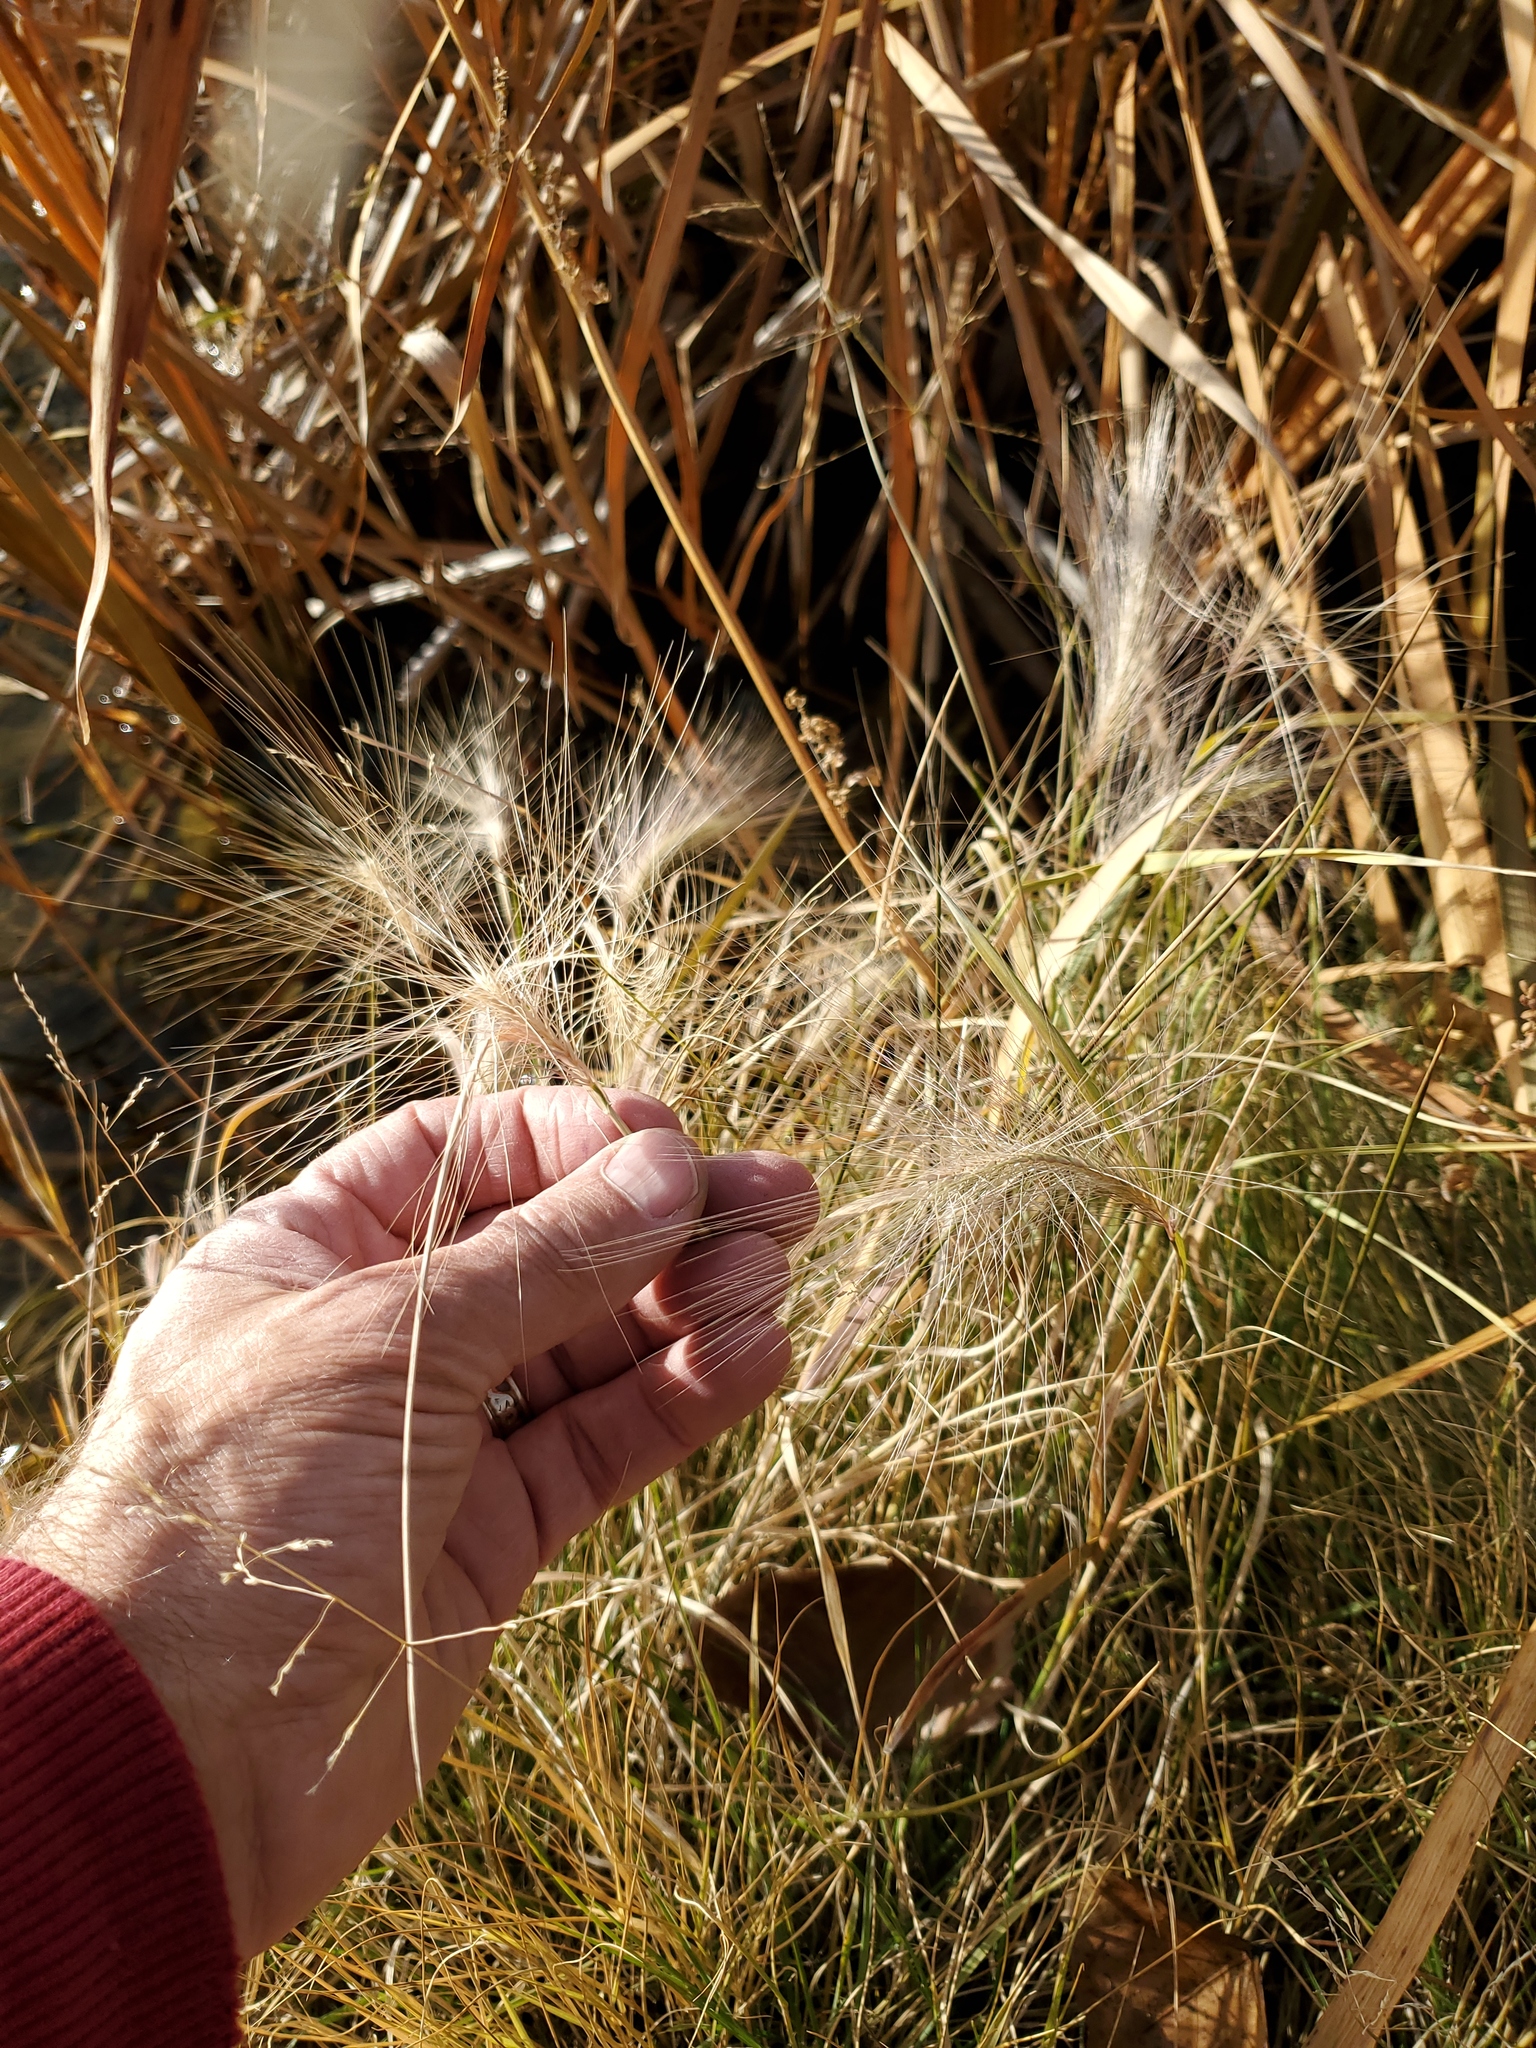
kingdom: Plantae
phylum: Tracheophyta
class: Liliopsida
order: Poales
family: Poaceae
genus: Hordeum
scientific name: Hordeum jubatum
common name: Foxtail barley
